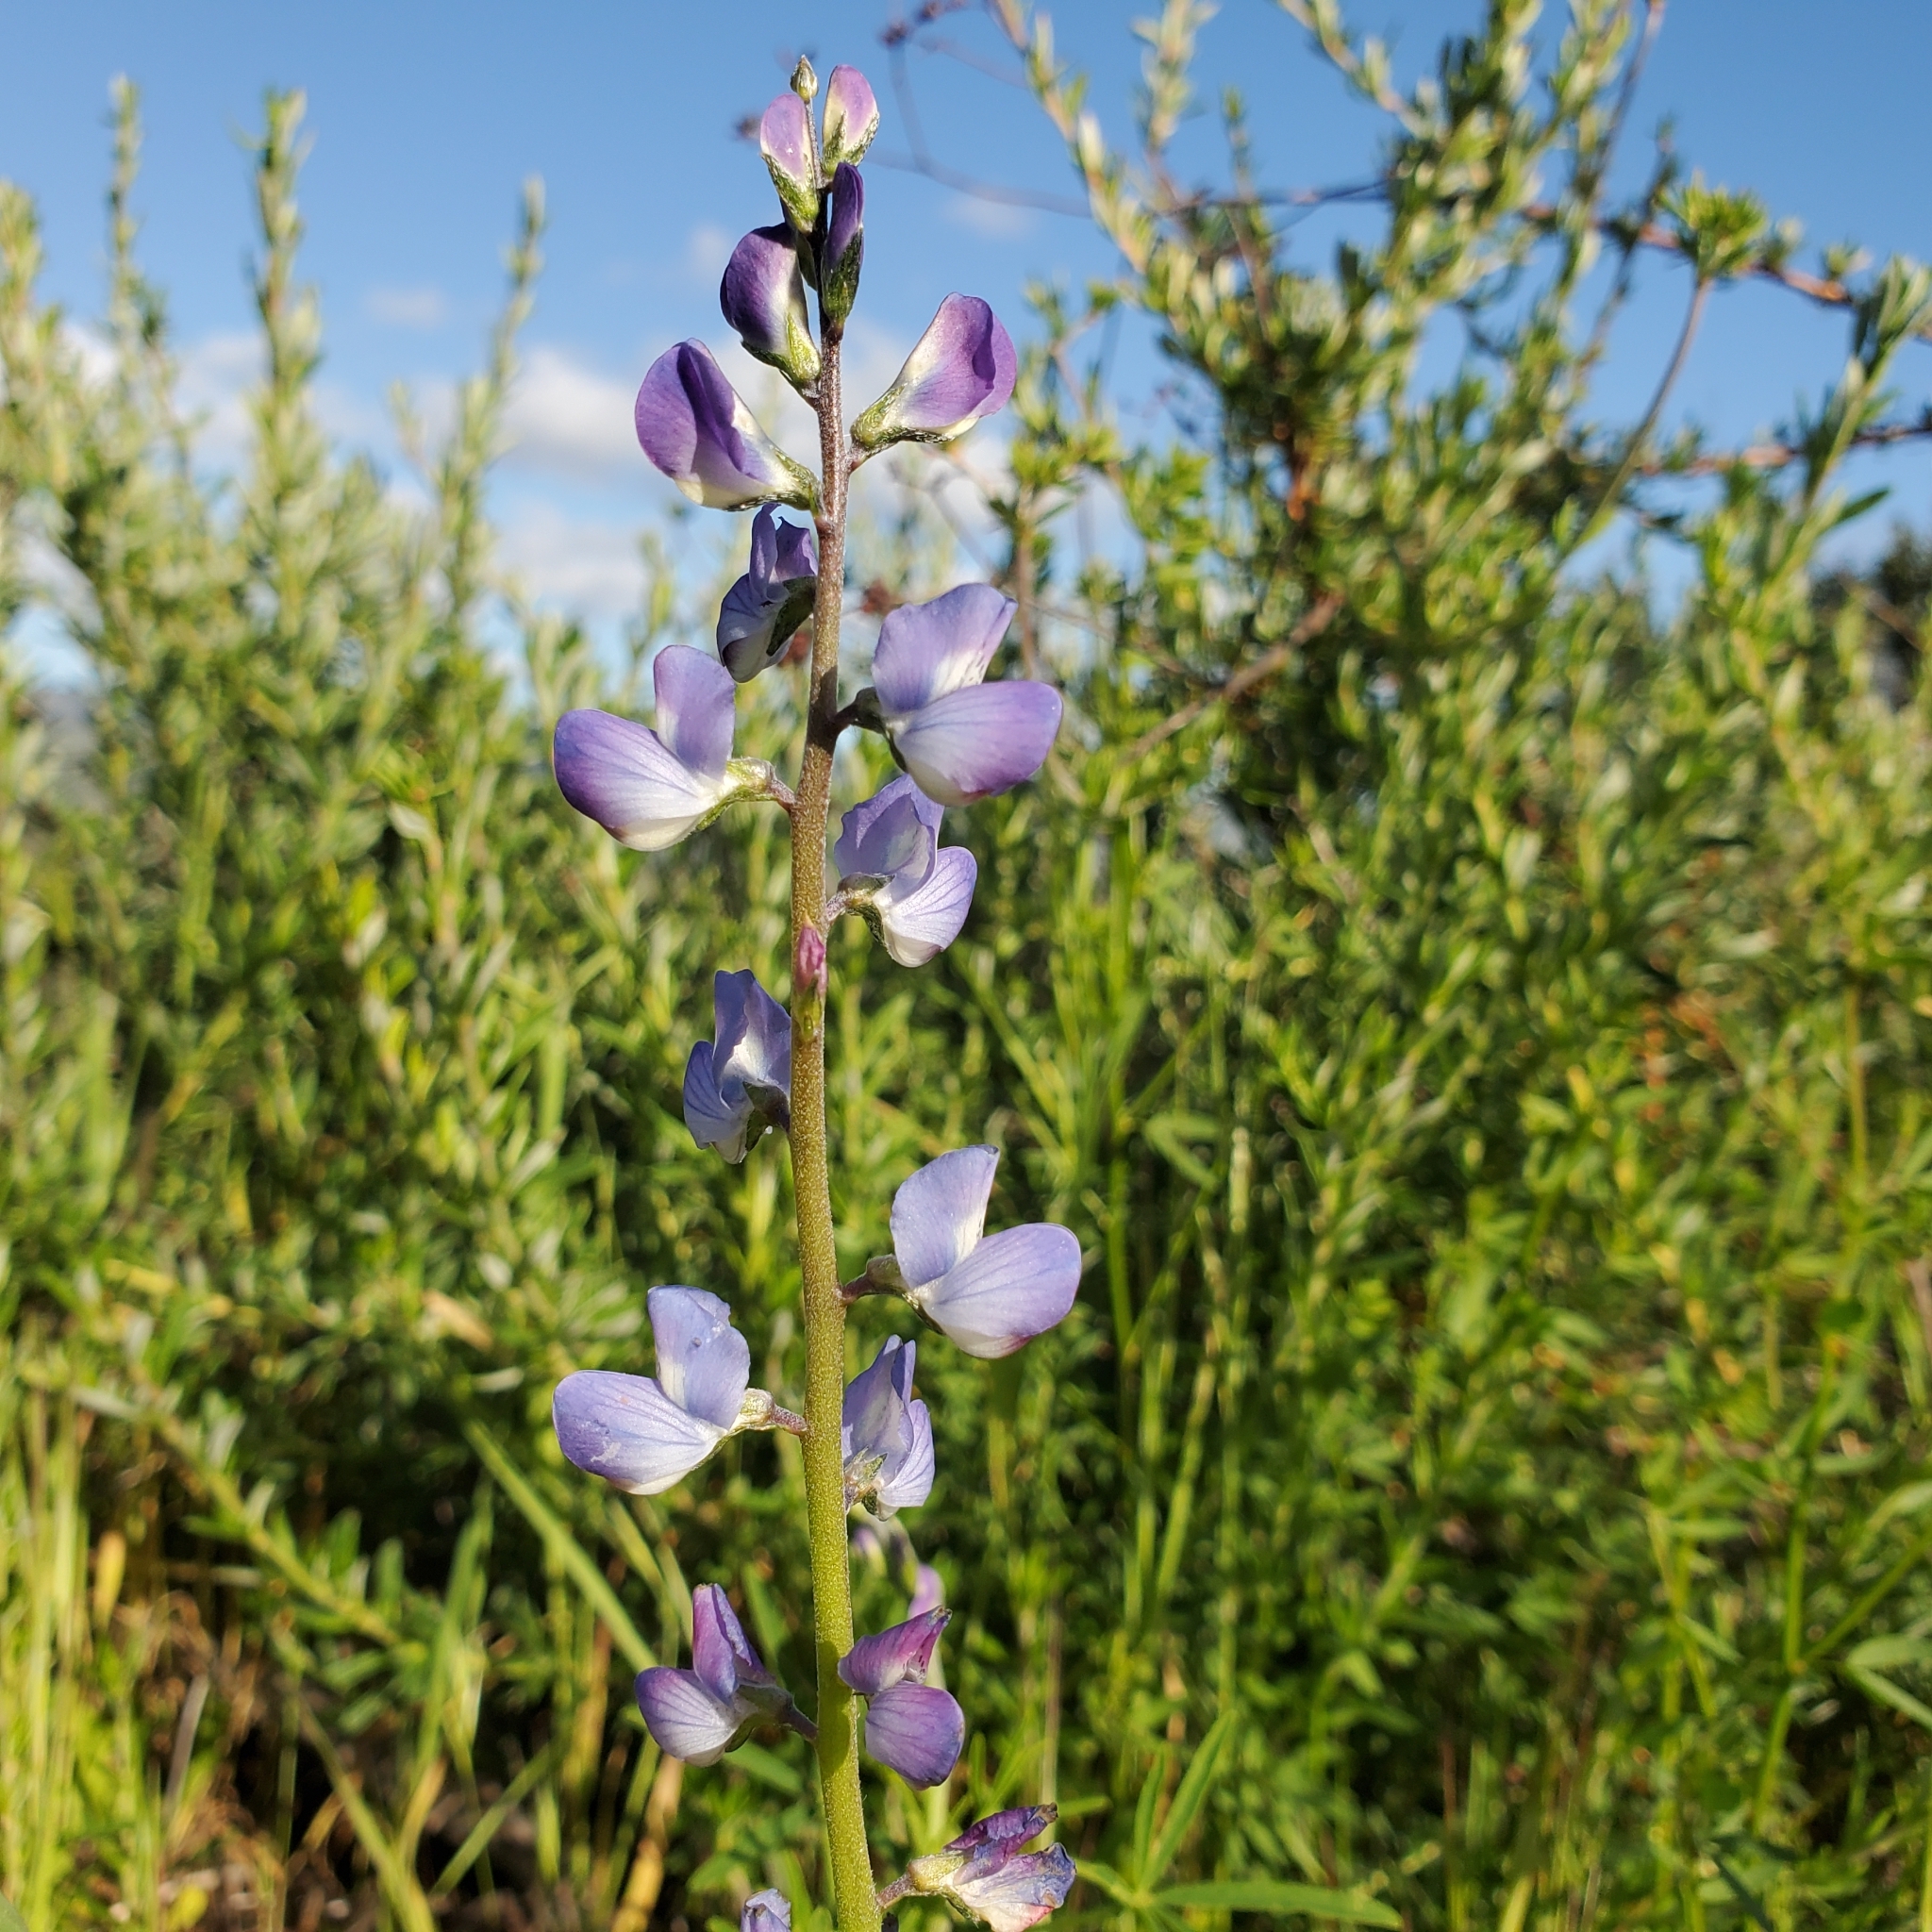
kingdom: Plantae
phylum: Tracheophyta
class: Magnoliopsida
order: Fabales
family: Fabaceae
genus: Lupinus
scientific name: Lupinus truncatus
